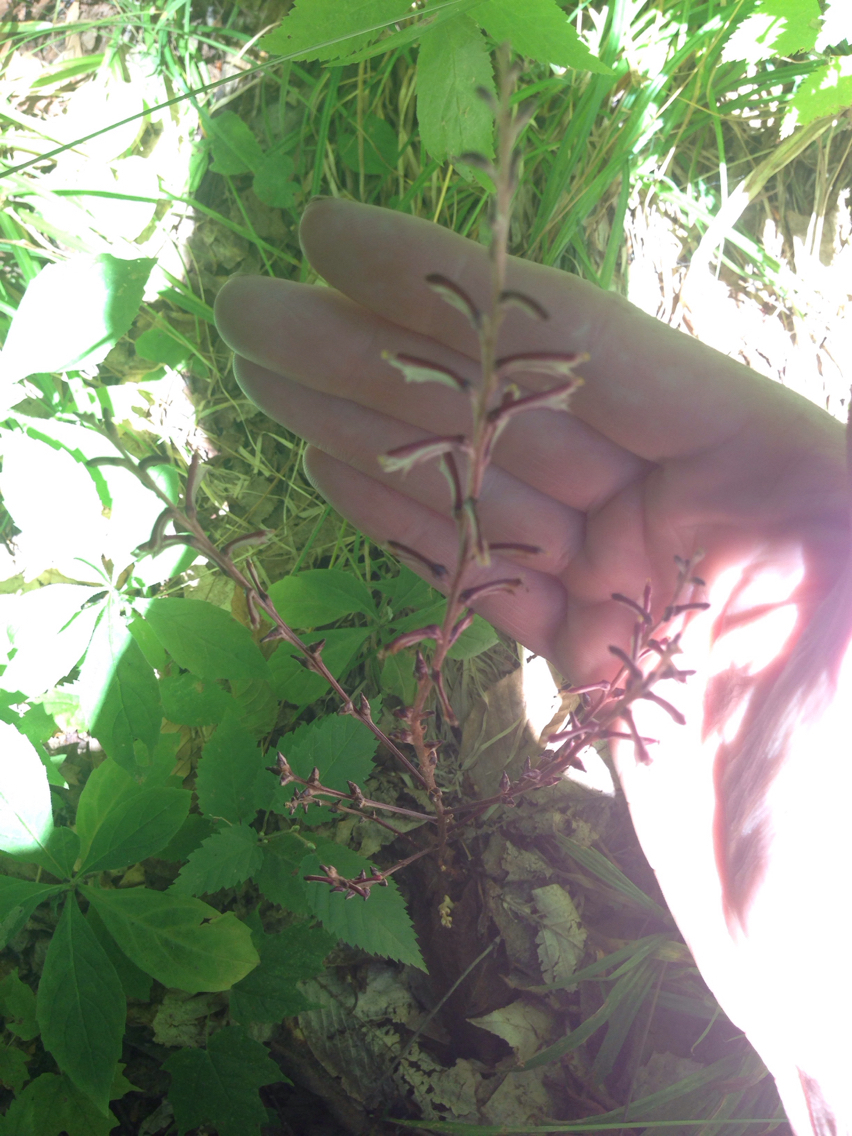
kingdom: Plantae
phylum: Tracheophyta
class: Magnoliopsida
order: Lamiales
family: Orobanchaceae
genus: Epifagus
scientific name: Epifagus virginiana
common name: Beechdrops
